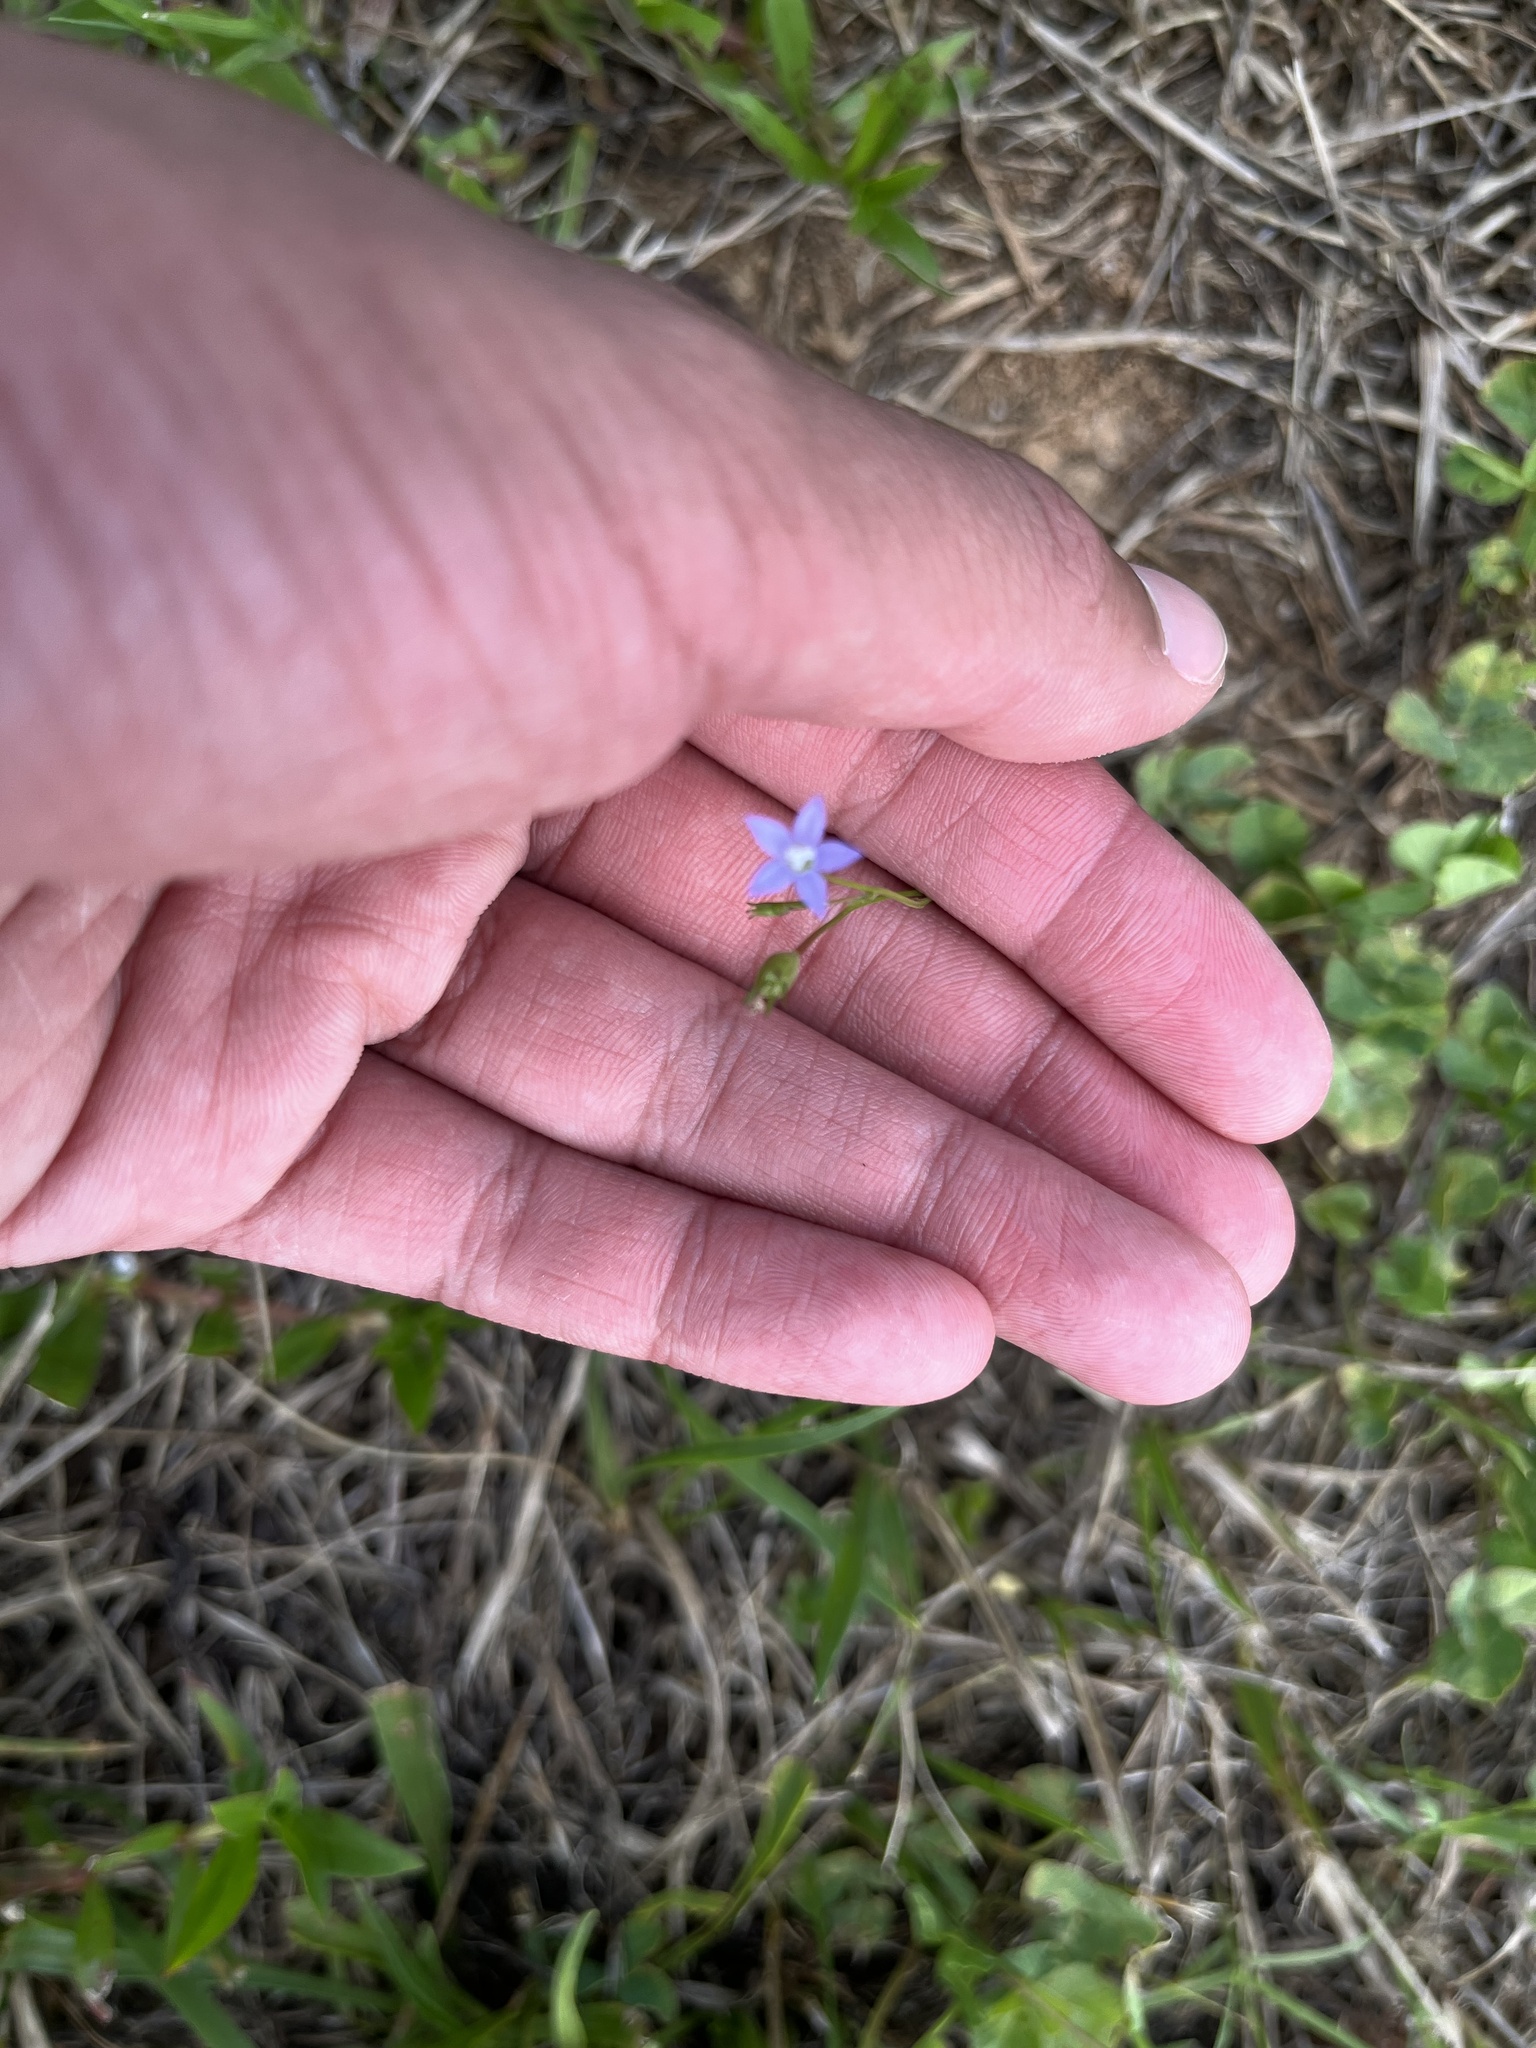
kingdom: Plantae
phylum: Tracheophyta
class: Magnoliopsida
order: Asterales
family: Campanulaceae
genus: Wahlenbergia
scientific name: Wahlenbergia marginata
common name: Southern rockbell
